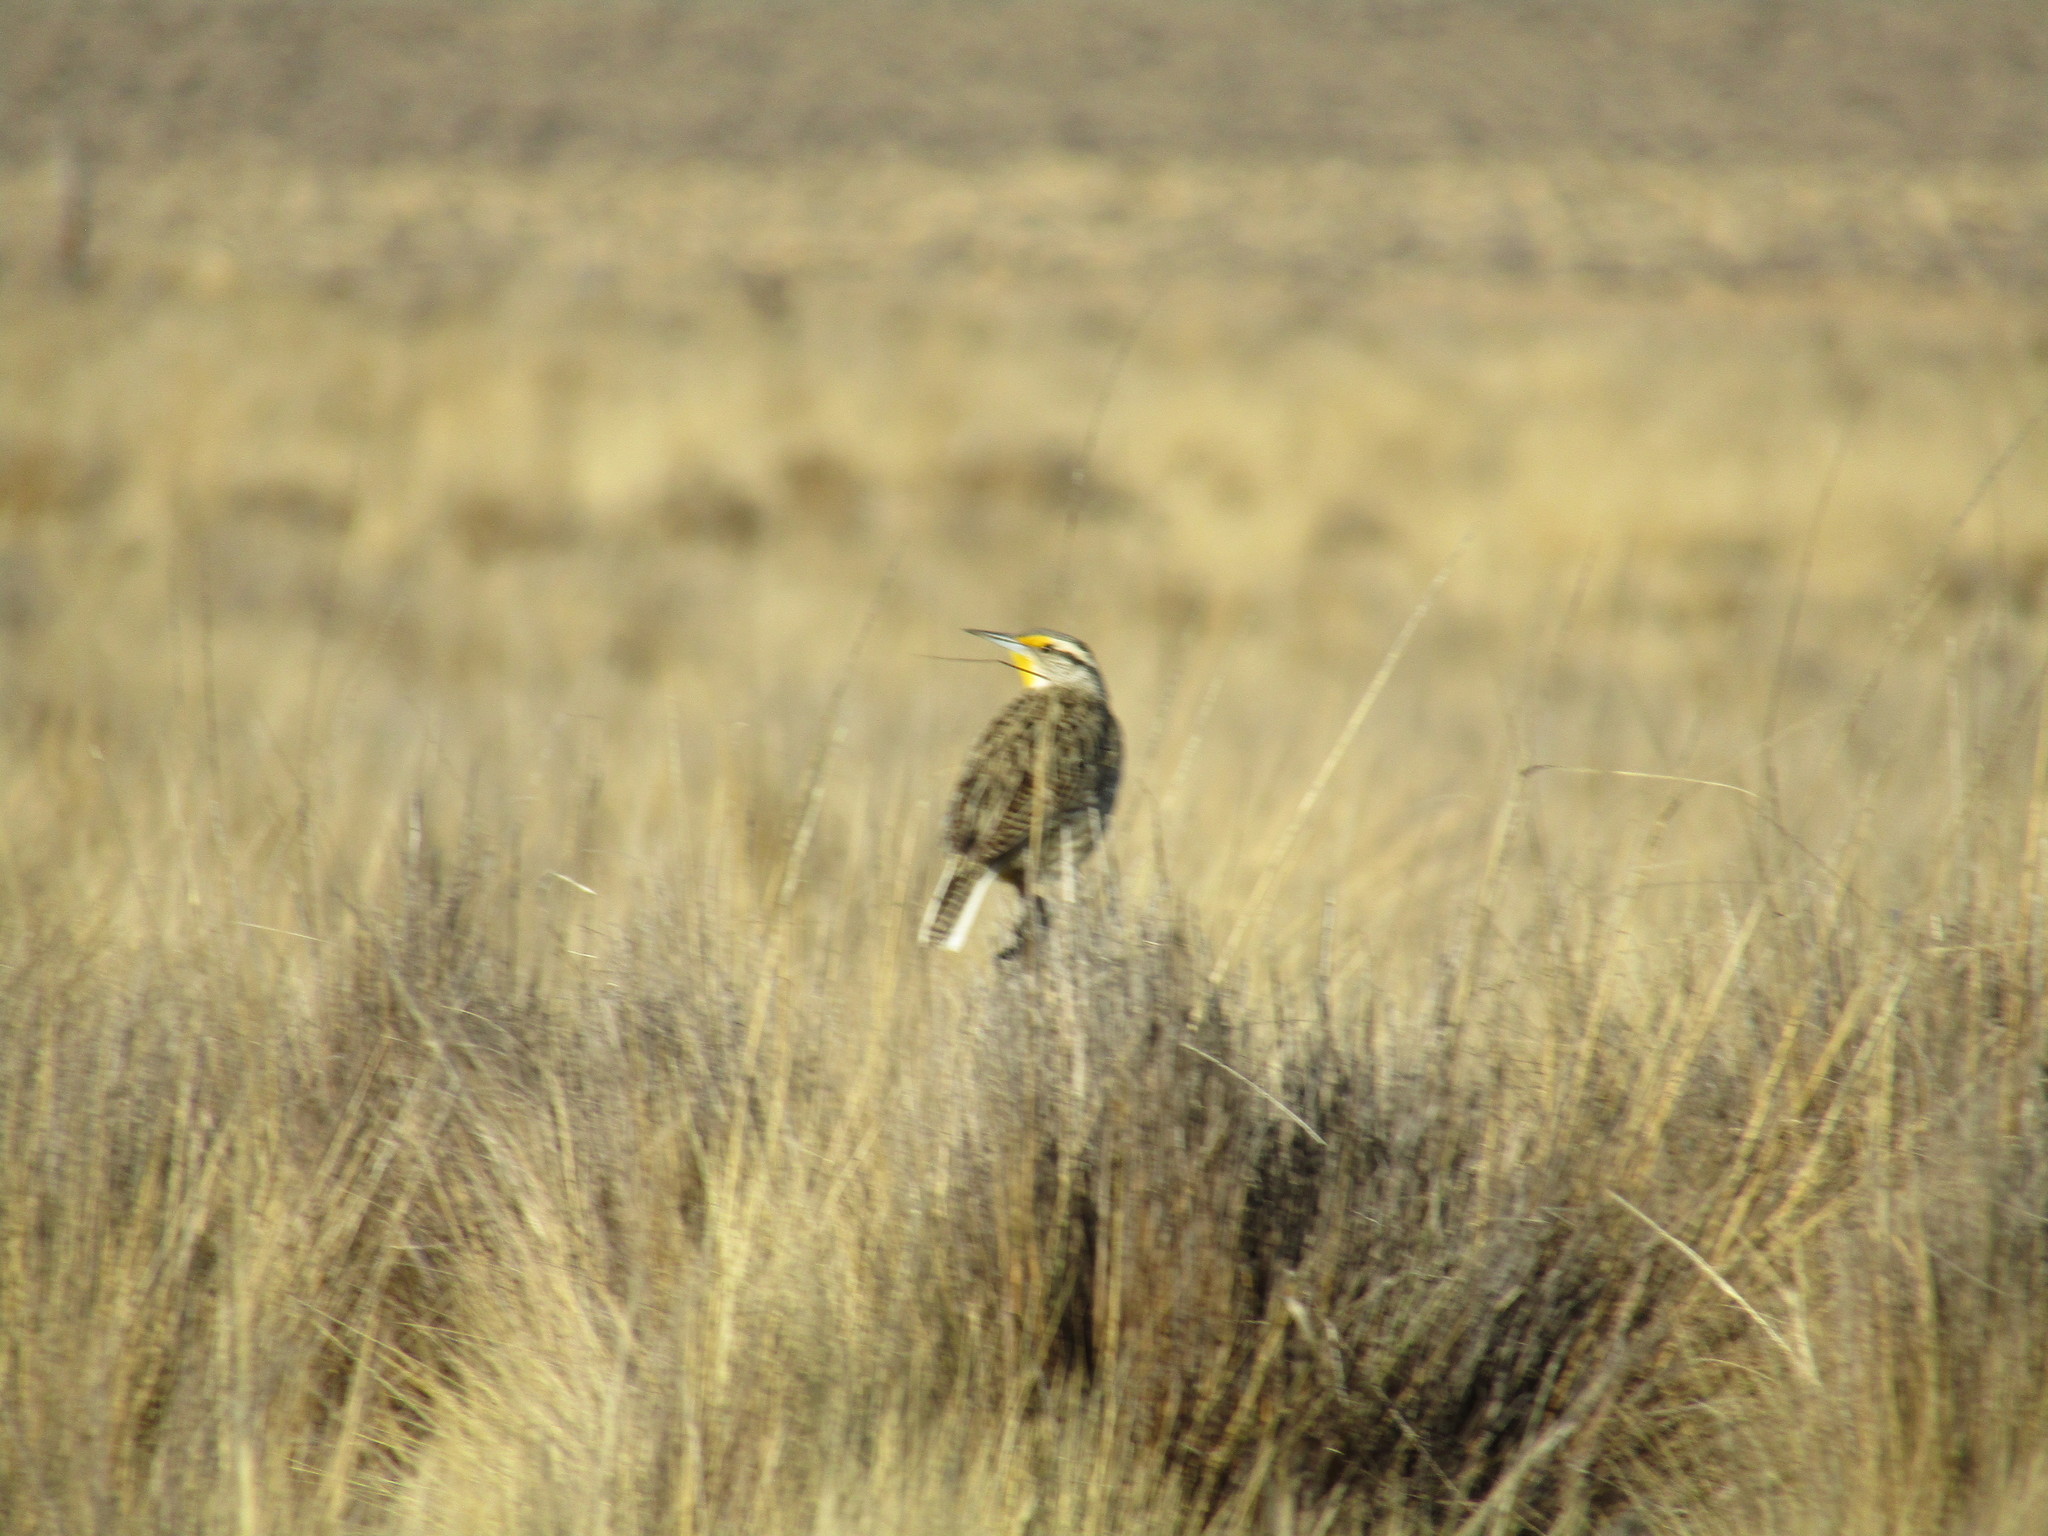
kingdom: Animalia
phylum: Chordata
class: Aves
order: Passeriformes
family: Icteridae
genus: Sturnella
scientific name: Sturnella magna
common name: Eastern meadowlark
